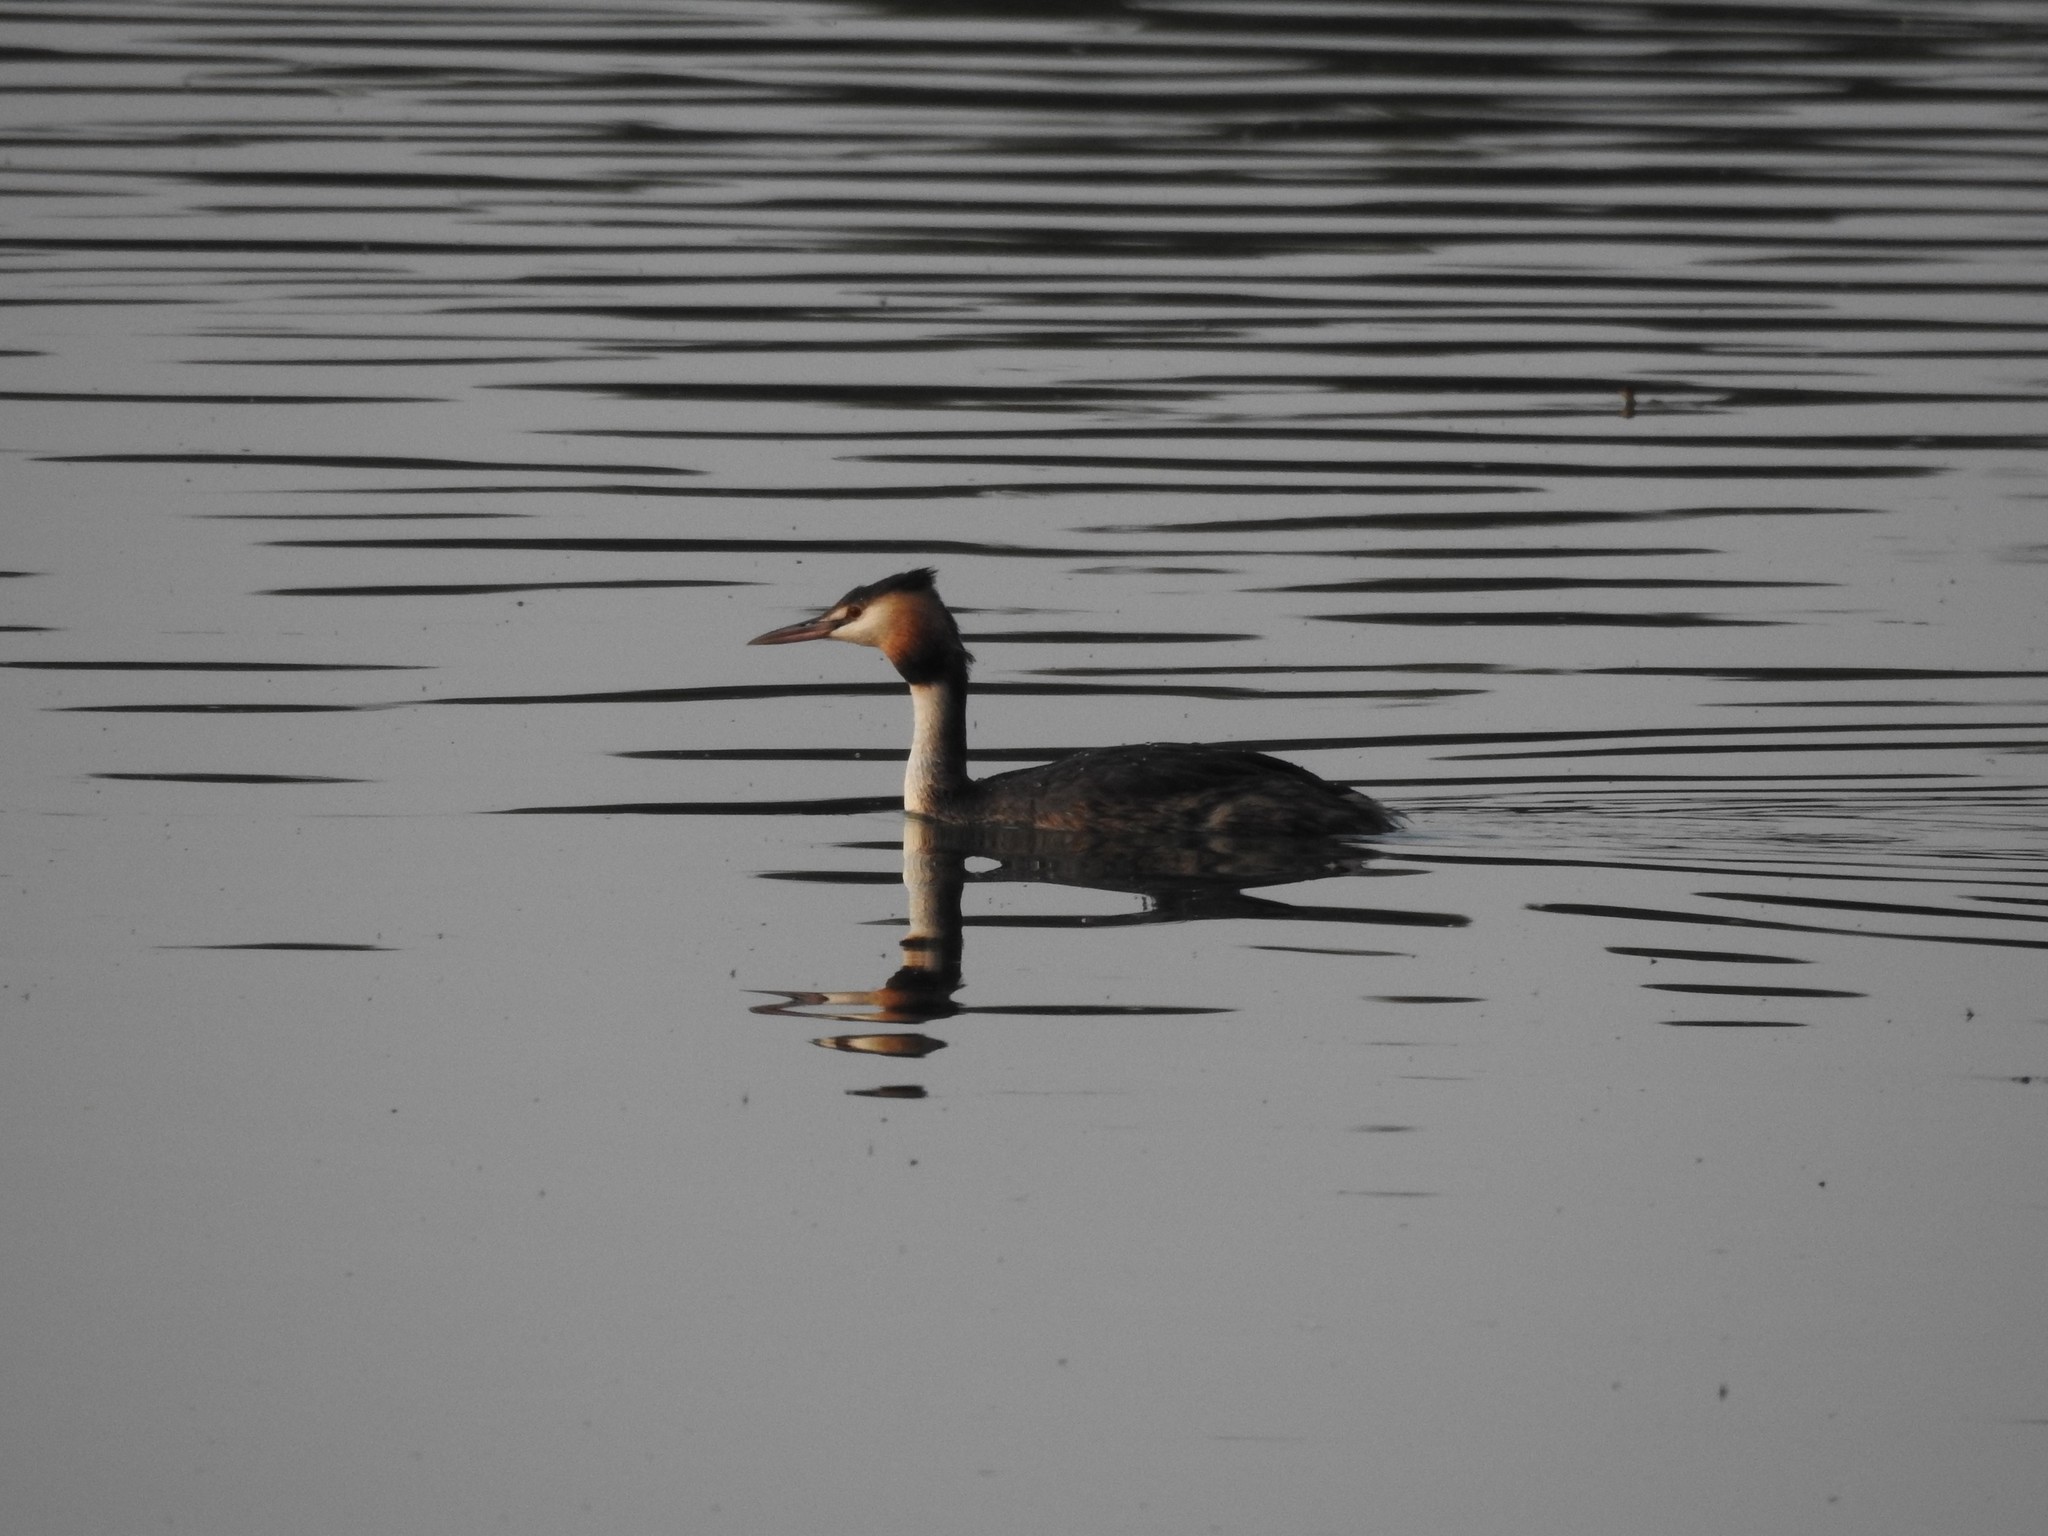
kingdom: Animalia
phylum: Chordata
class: Aves
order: Podicipediformes
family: Podicipedidae
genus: Podiceps
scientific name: Podiceps cristatus
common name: Great crested grebe
